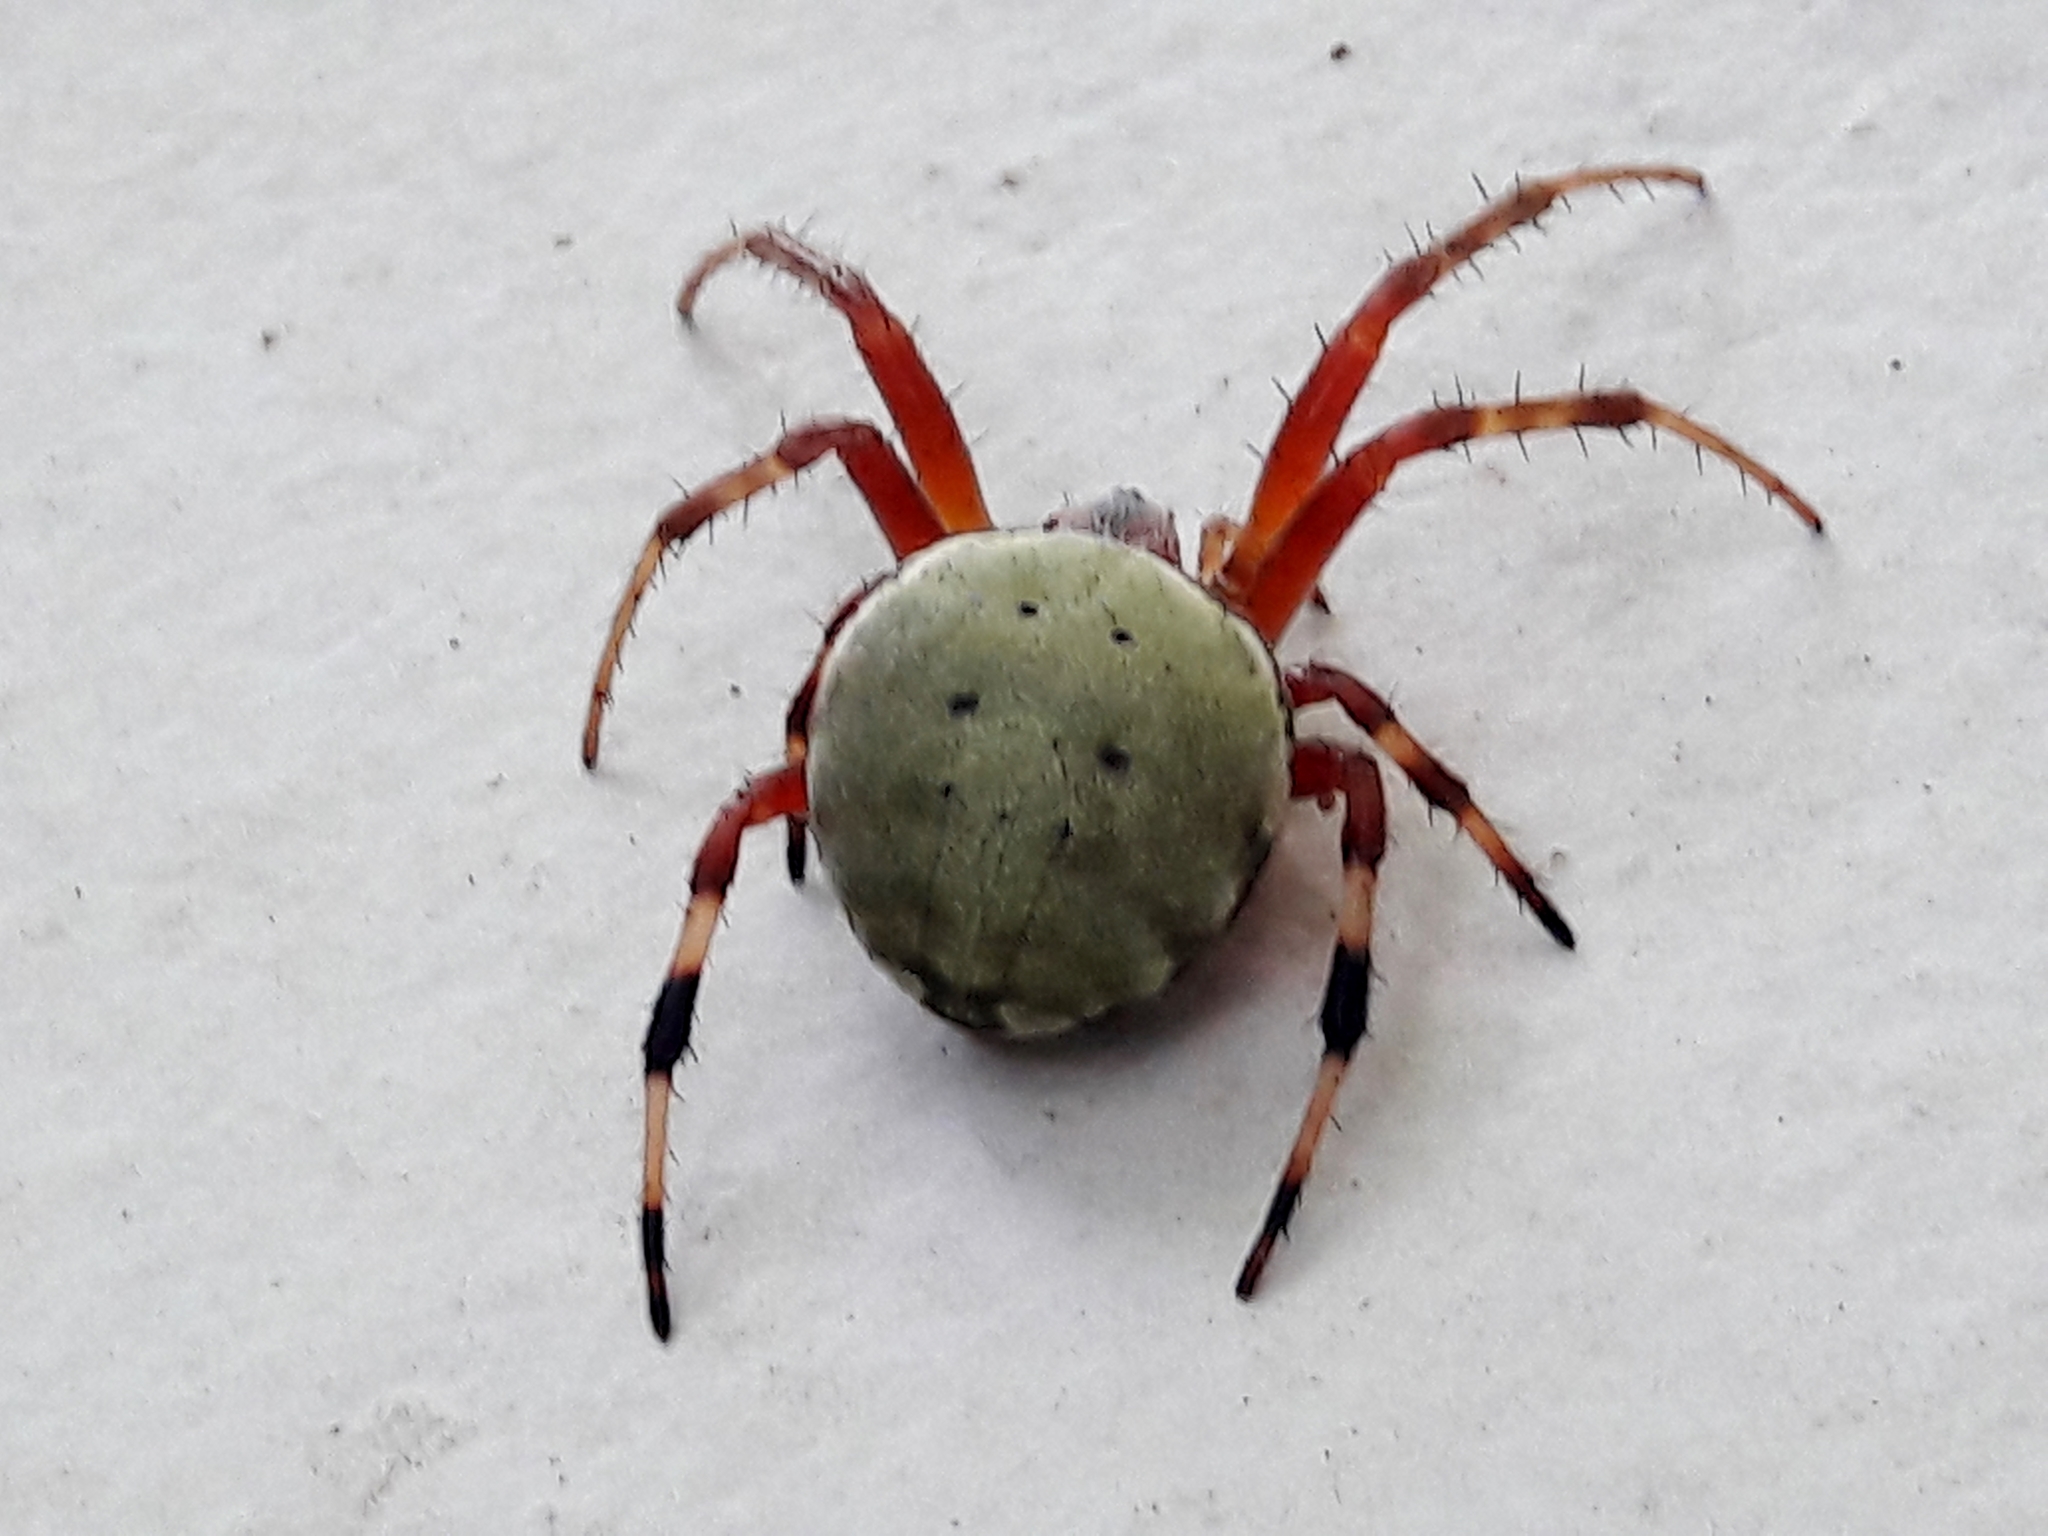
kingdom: Animalia
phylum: Arthropoda
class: Arachnida
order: Araneae
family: Araneidae
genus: Araneus
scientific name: Araneus horizonte
